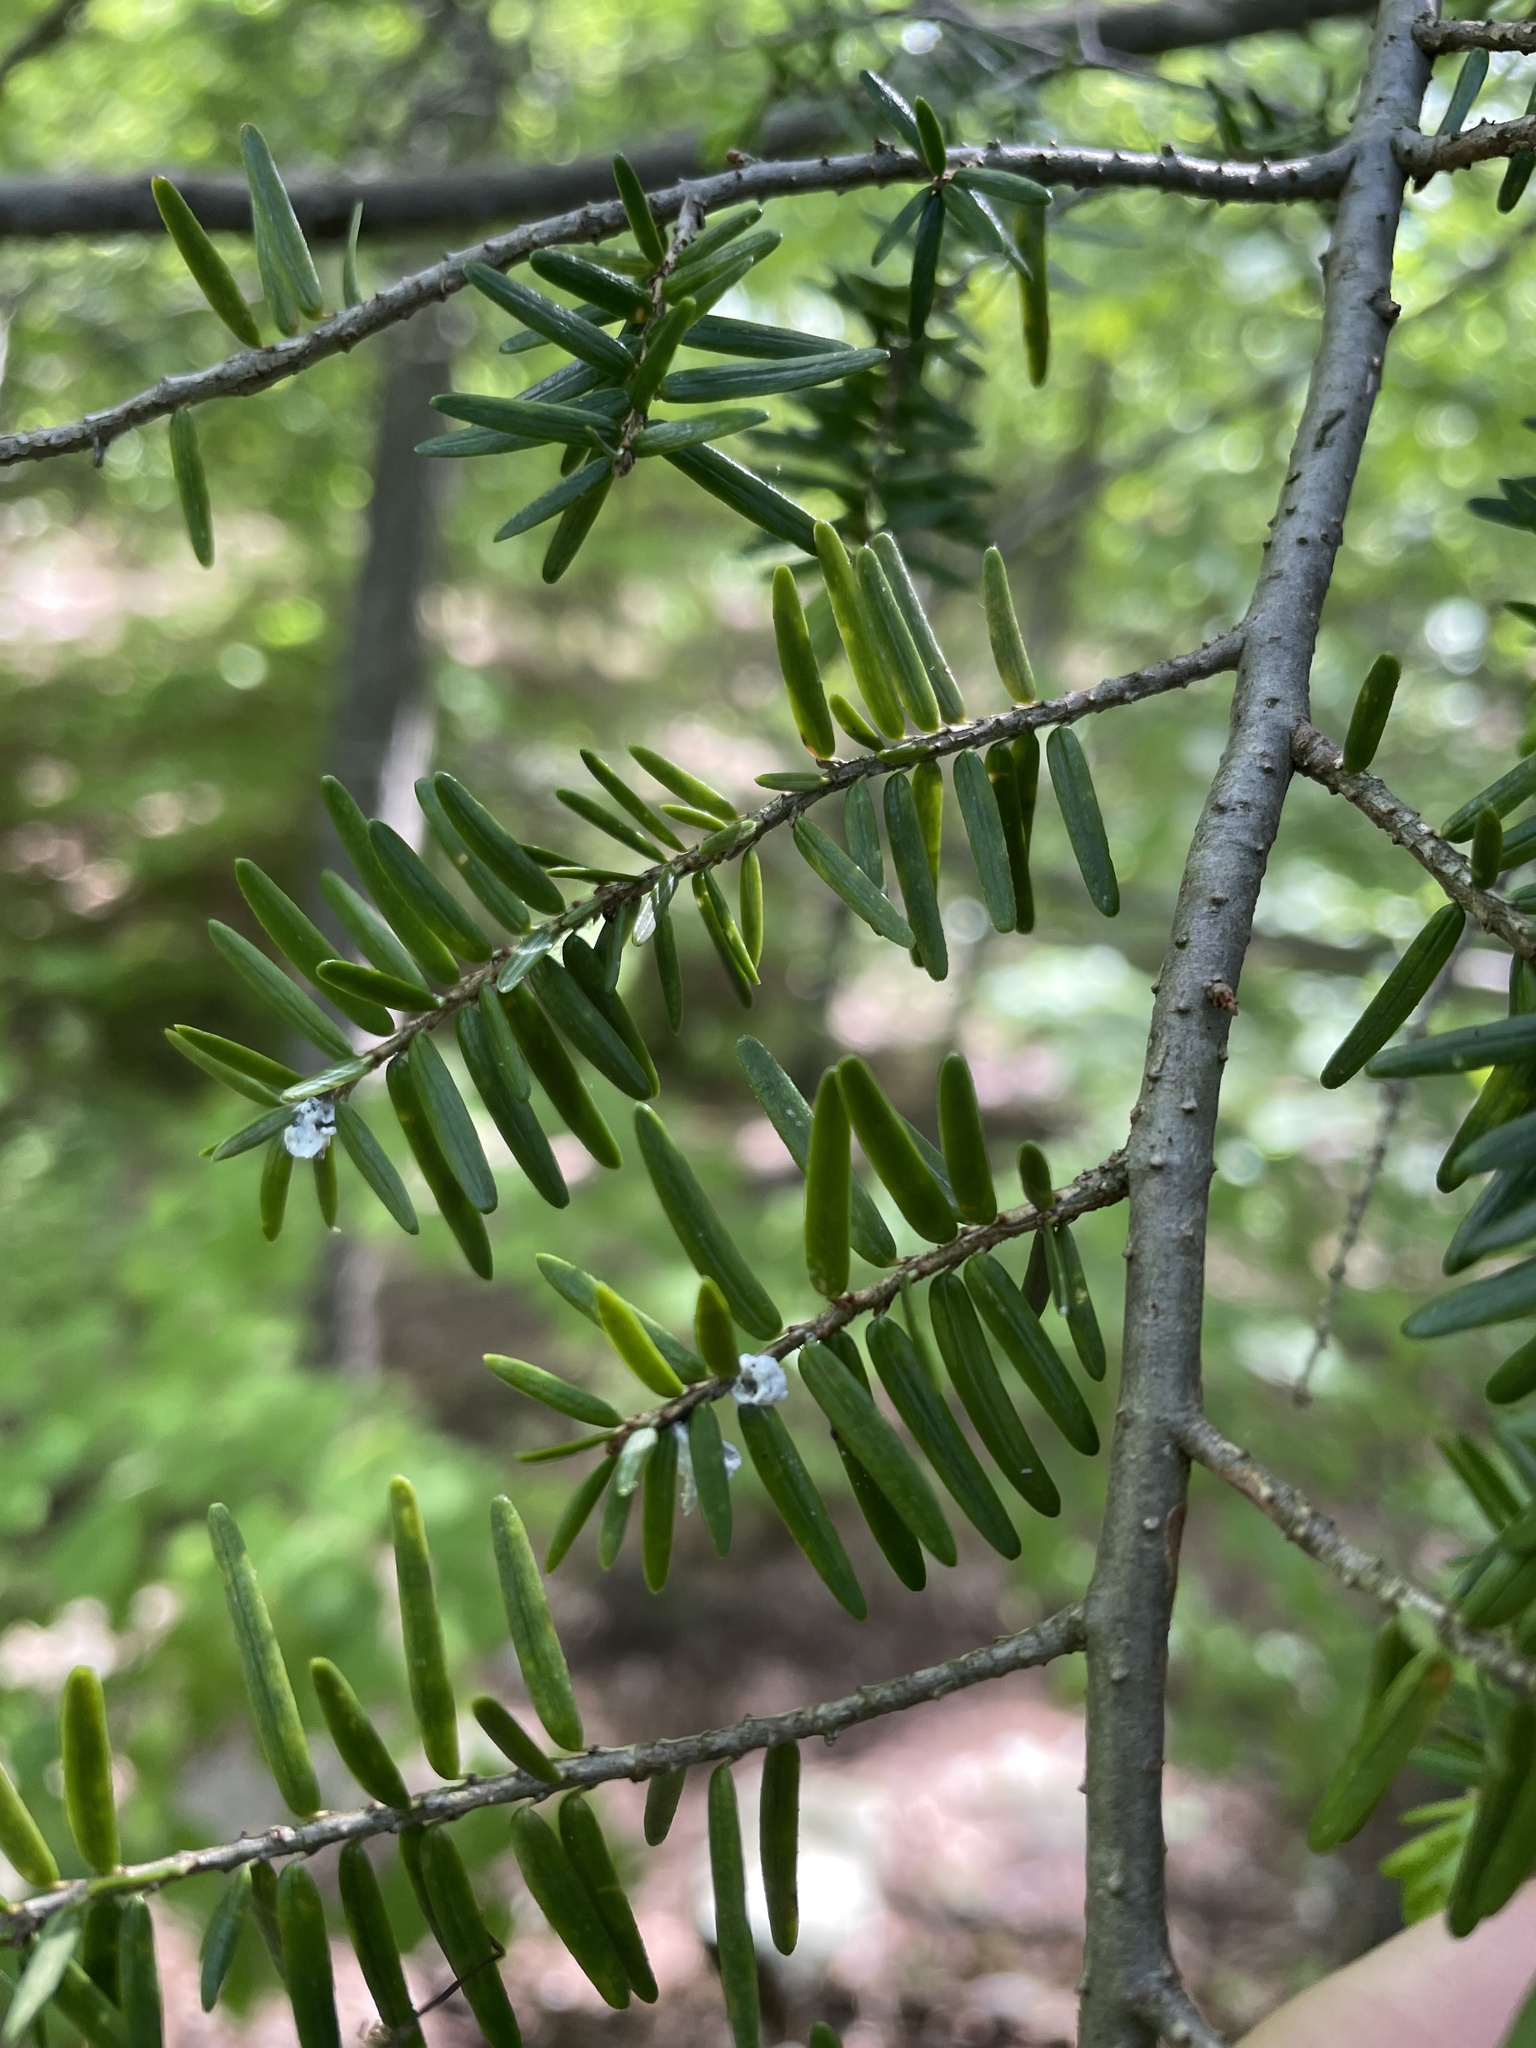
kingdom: Animalia
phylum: Arthropoda
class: Insecta
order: Hemiptera
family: Adelgidae
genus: Adelges
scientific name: Adelges tsugae
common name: Hemlock woolly adelgid
